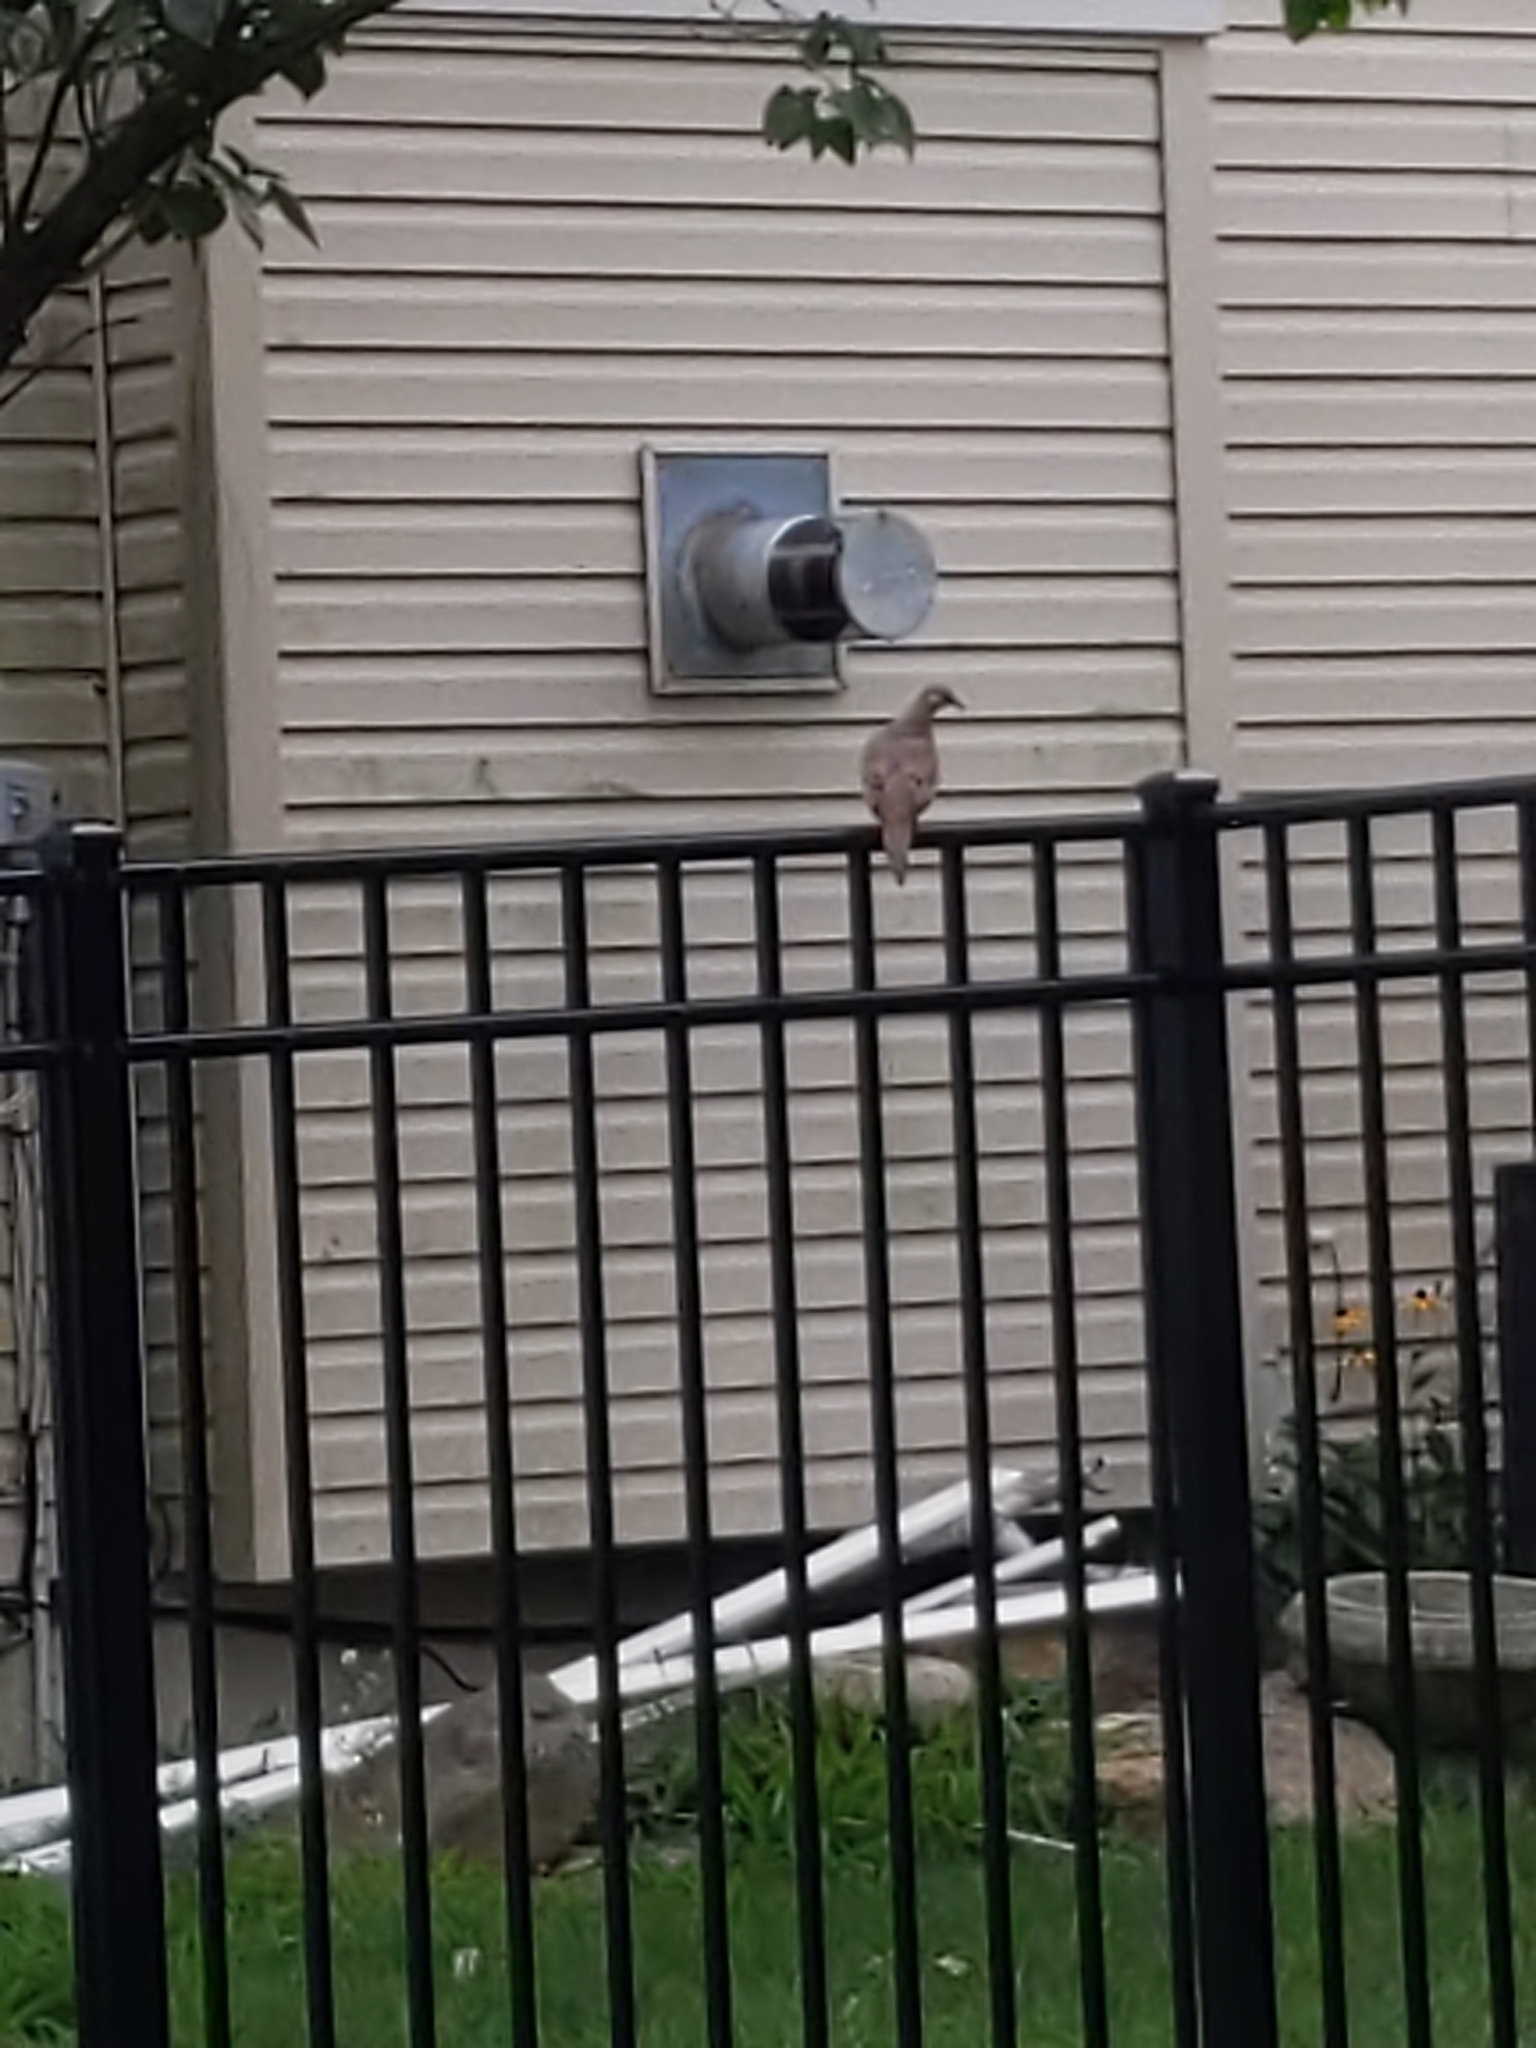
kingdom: Animalia
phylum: Chordata
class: Aves
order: Columbiformes
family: Columbidae
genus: Zenaida
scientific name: Zenaida macroura
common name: Mourning dove
